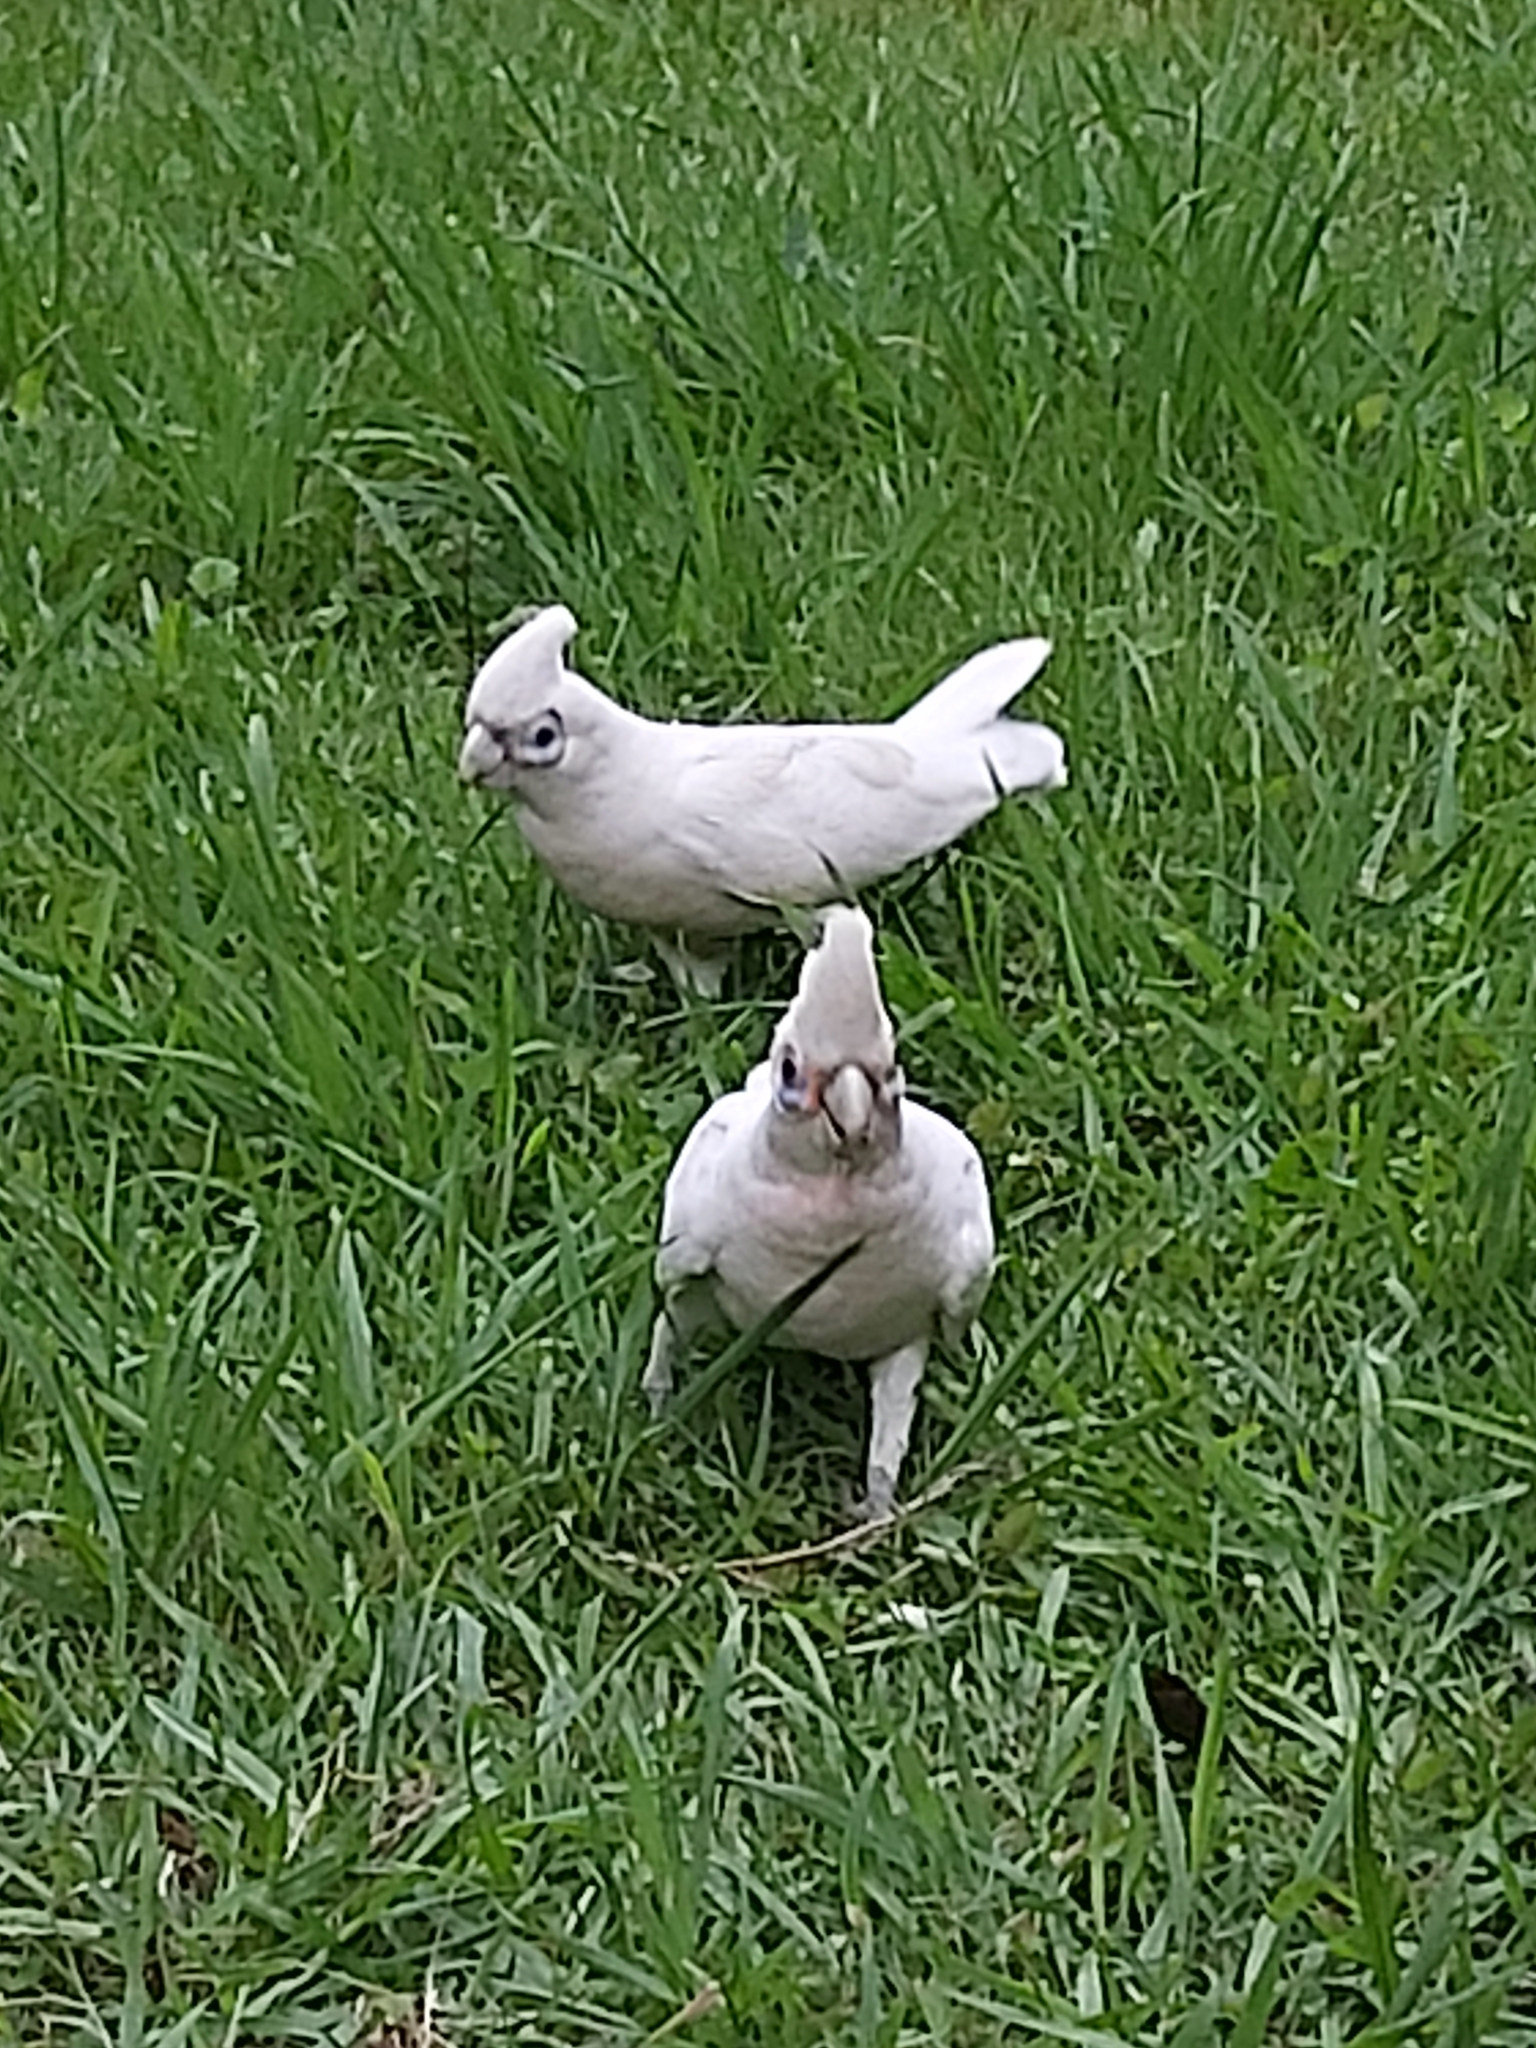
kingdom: Animalia
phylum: Chordata
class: Aves
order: Psittaciformes
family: Psittacidae
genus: Cacatua
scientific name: Cacatua sanguinea
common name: Little corella
